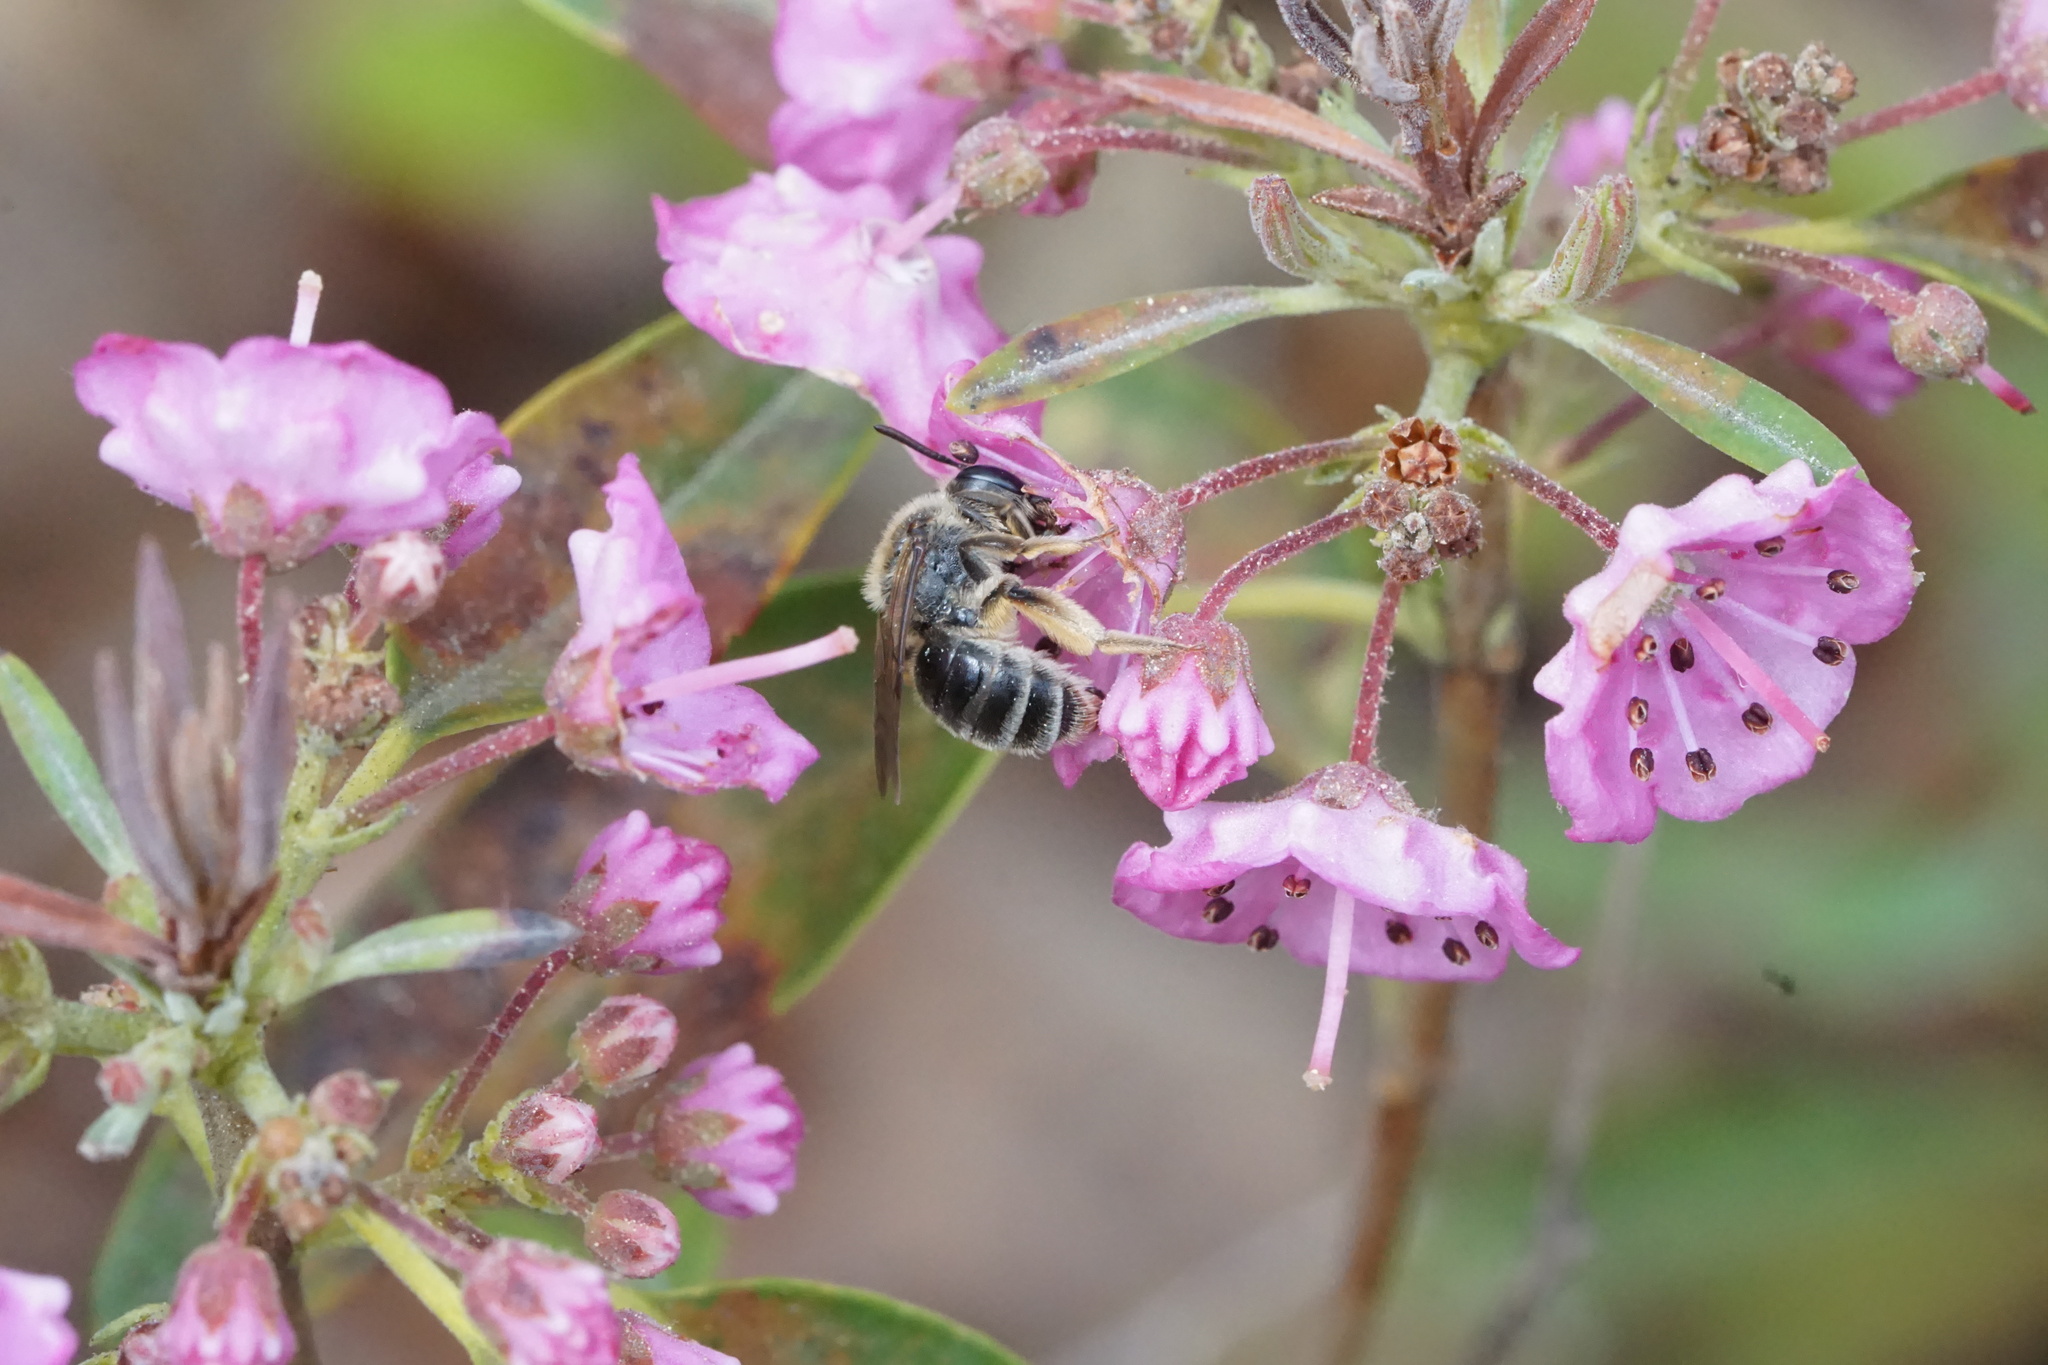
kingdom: Animalia
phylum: Arthropoda
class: Insecta
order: Hymenoptera
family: Andrenidae
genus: Andrena
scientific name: Andrena kalmiae
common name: Kalmia miner bee
